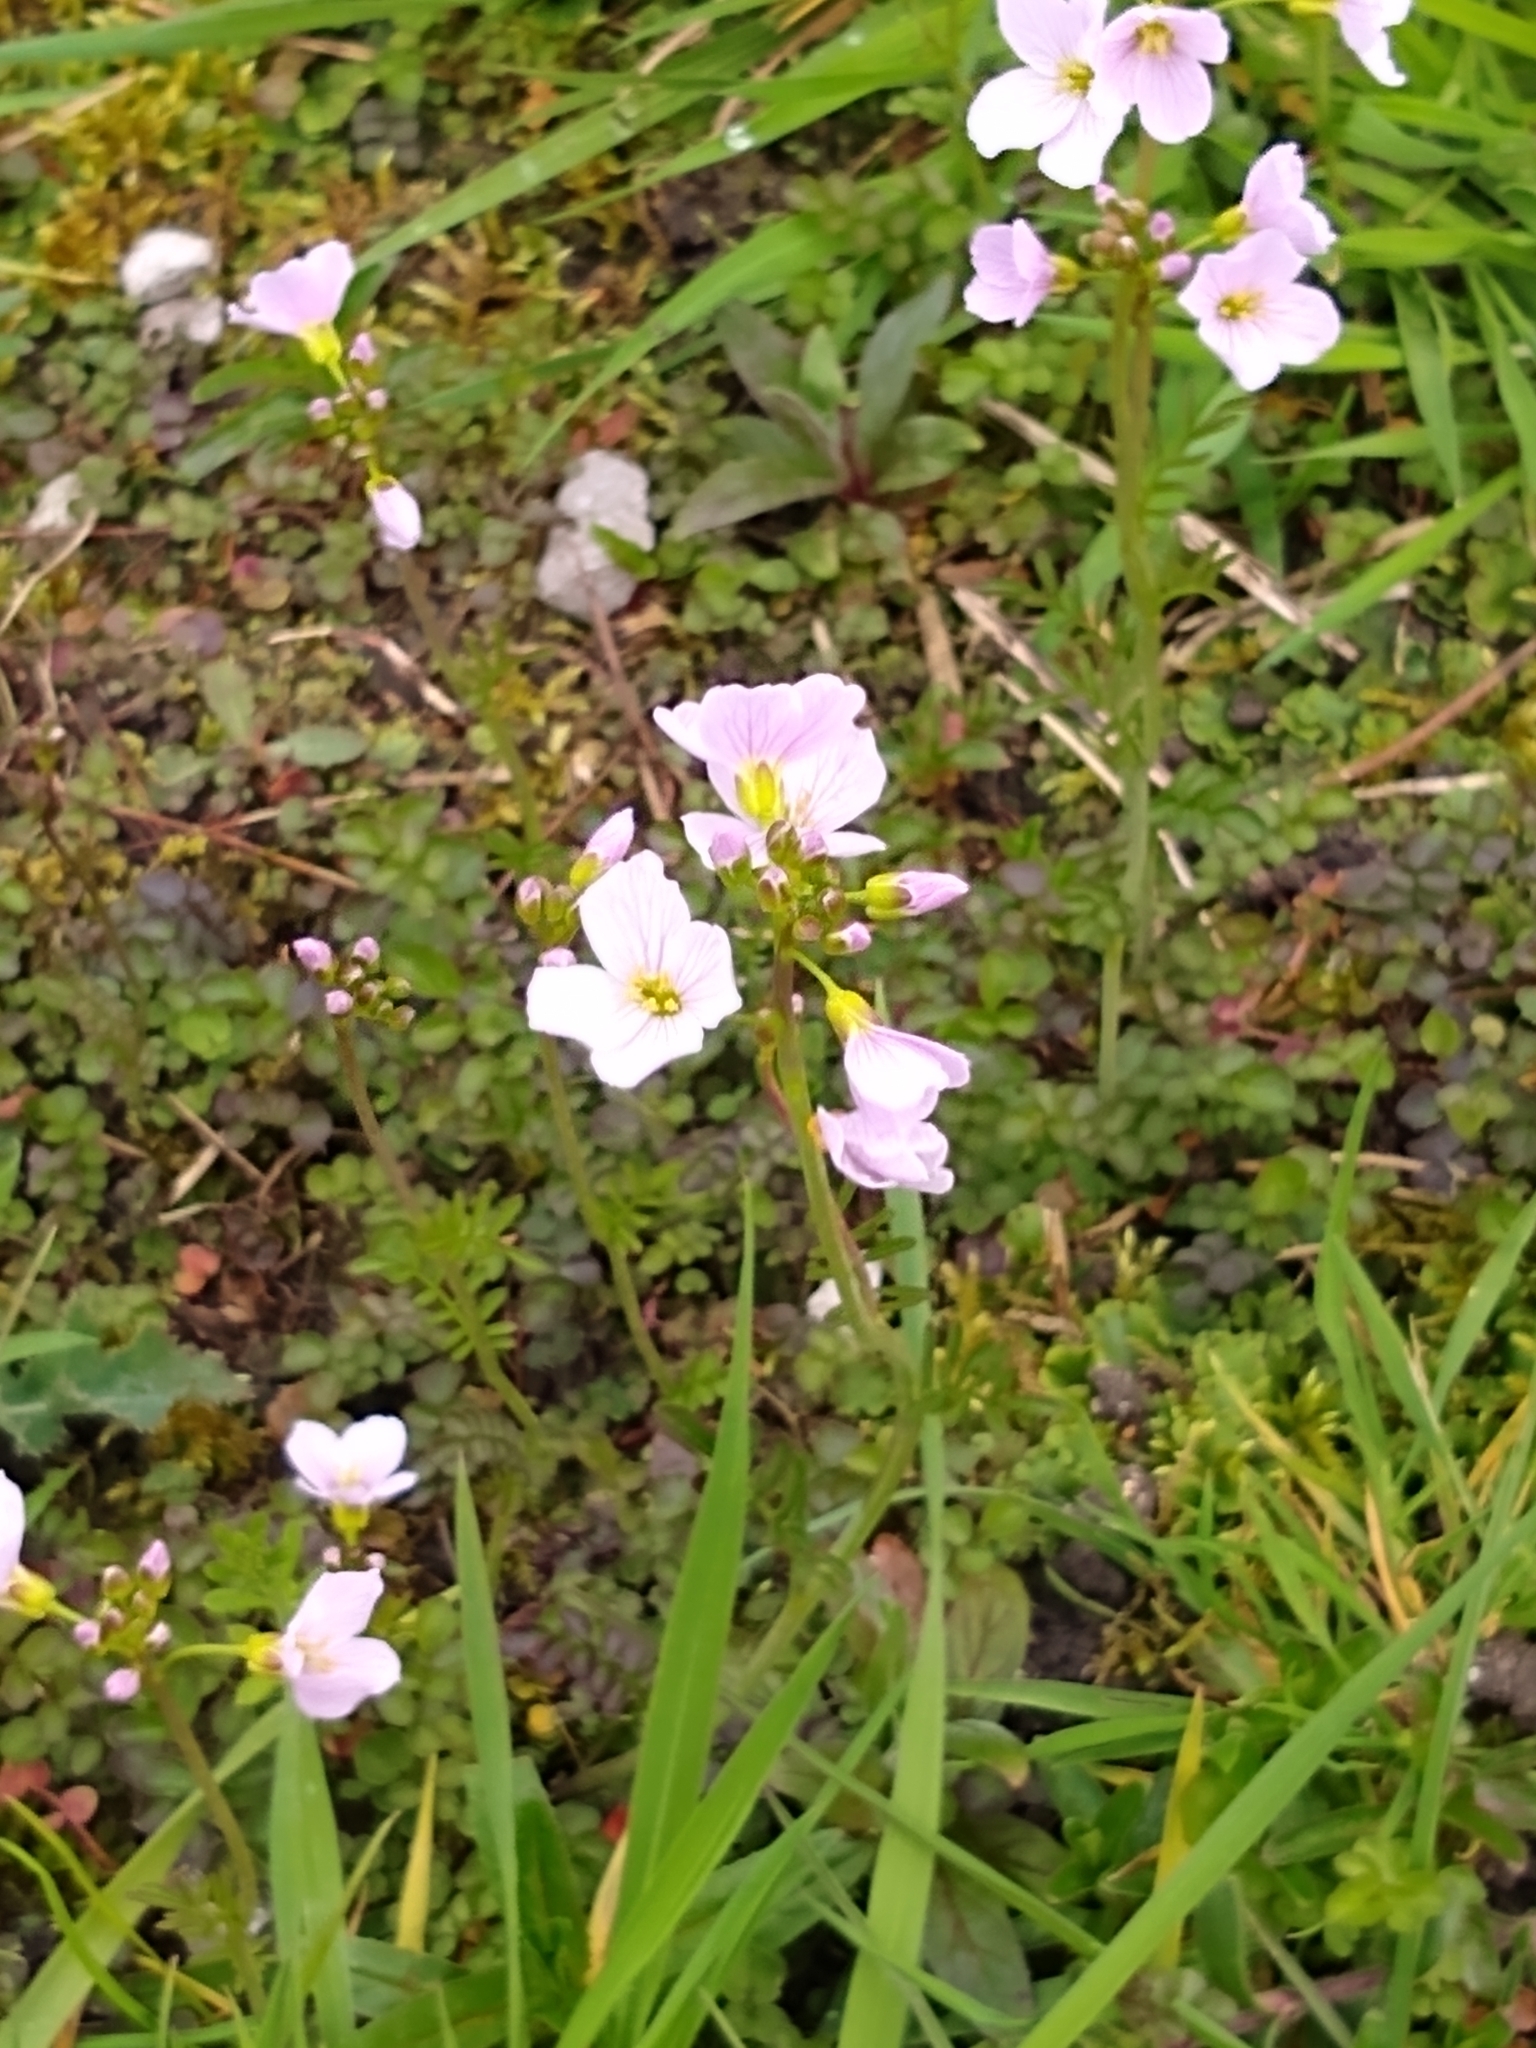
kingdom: Plantae
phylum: Tracheophyta
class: Magnoliopsida
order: Brassicales
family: Brassicaceae
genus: Cardamine
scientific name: Cardamine pratensis
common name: Cuckoo flower
